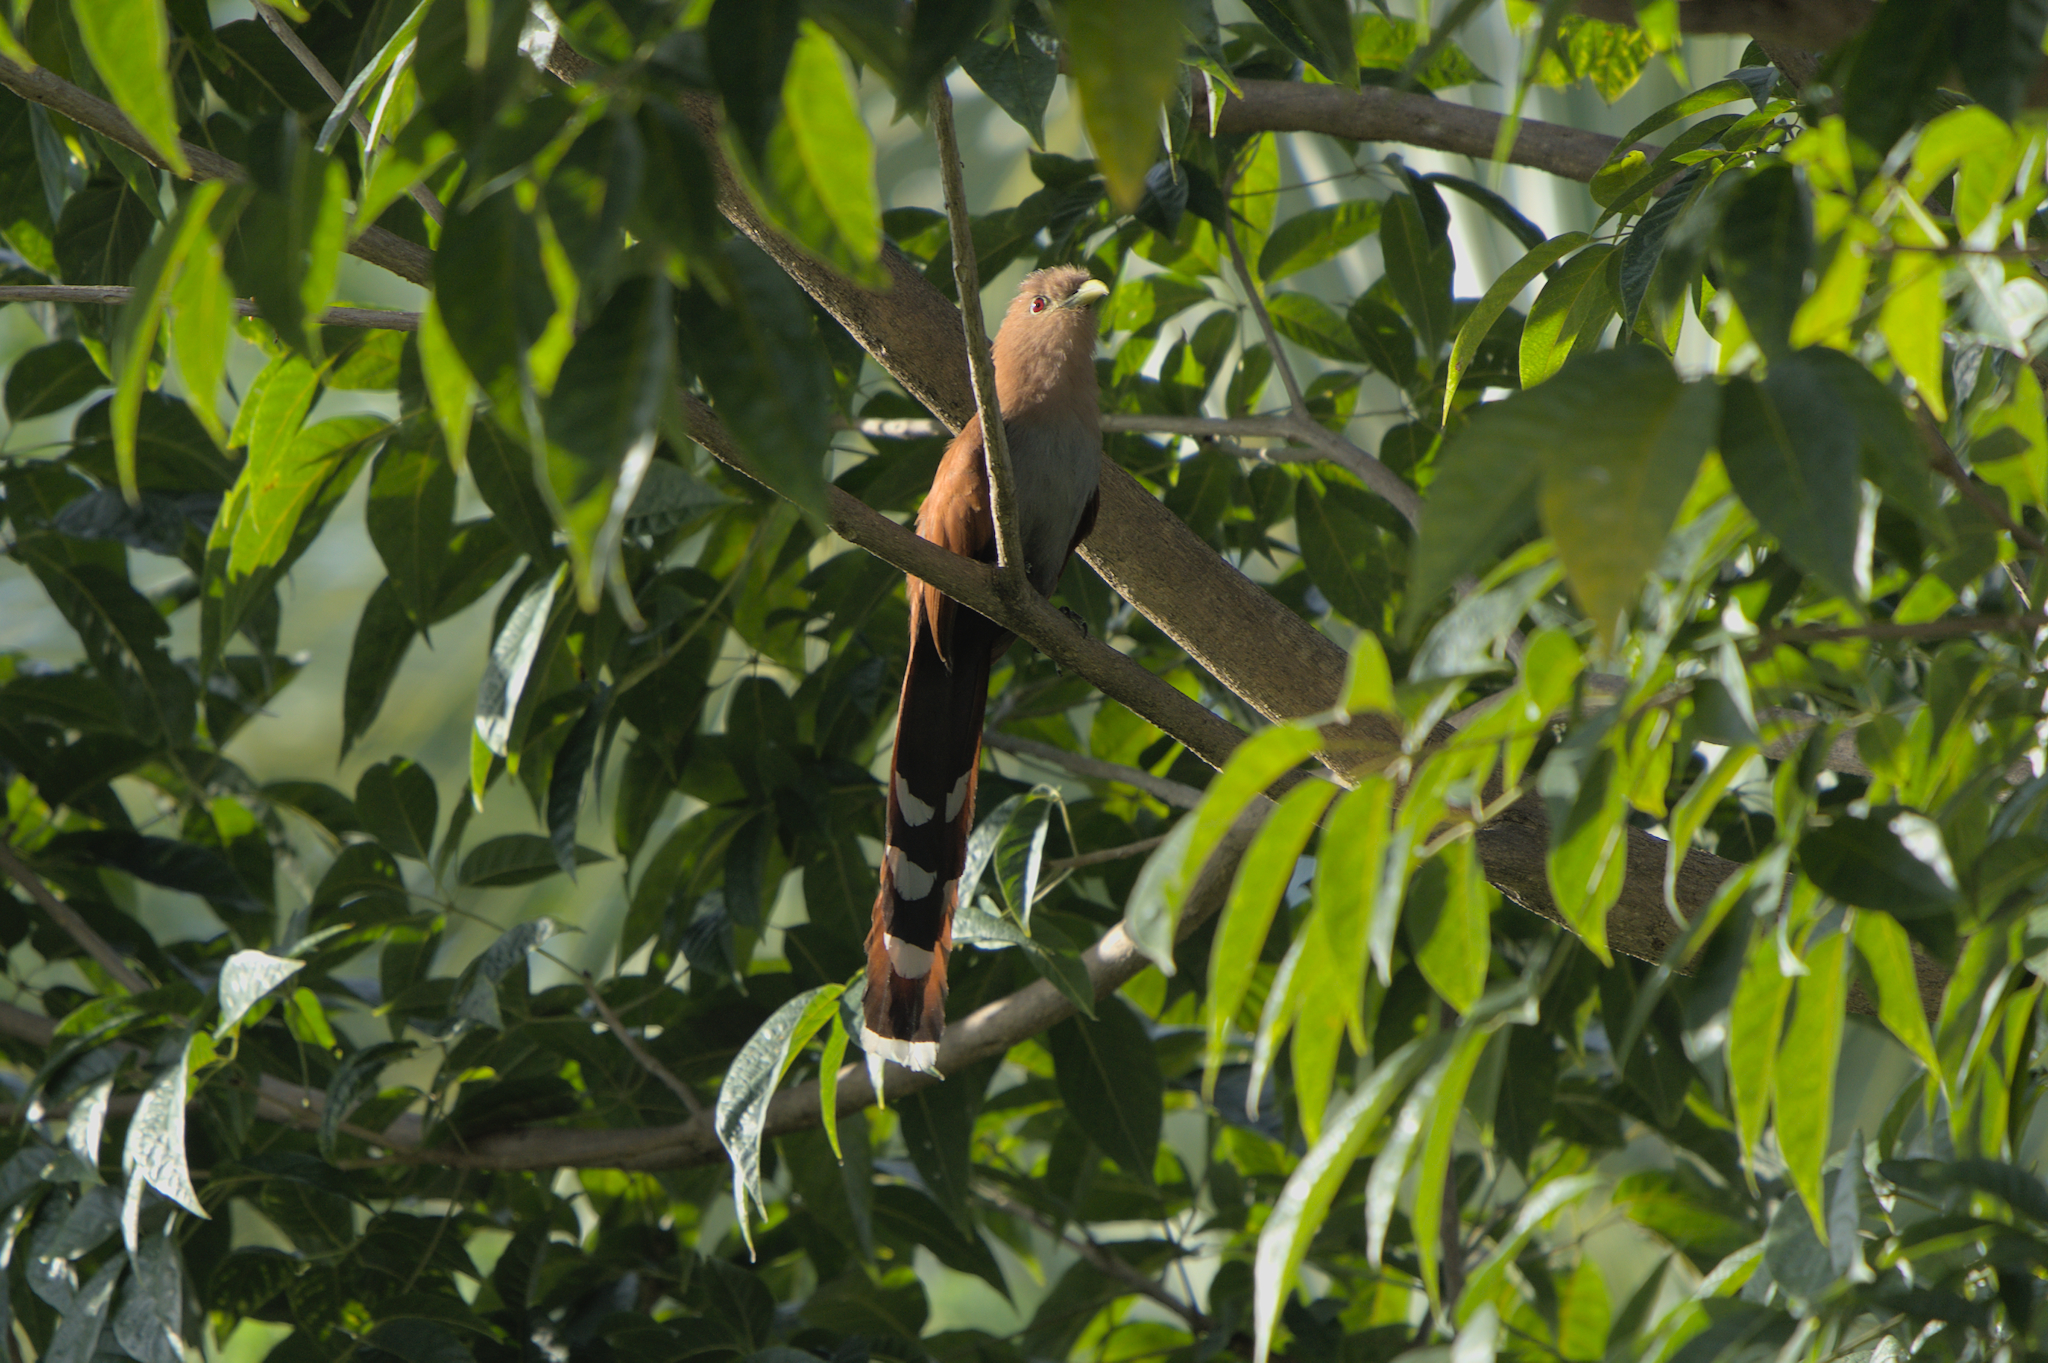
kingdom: Animalia
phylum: Chordata
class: Aves
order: Cuculiformes
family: Cuculidae
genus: Piaya
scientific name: Piaya cayana
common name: Squirrel cuckoo
